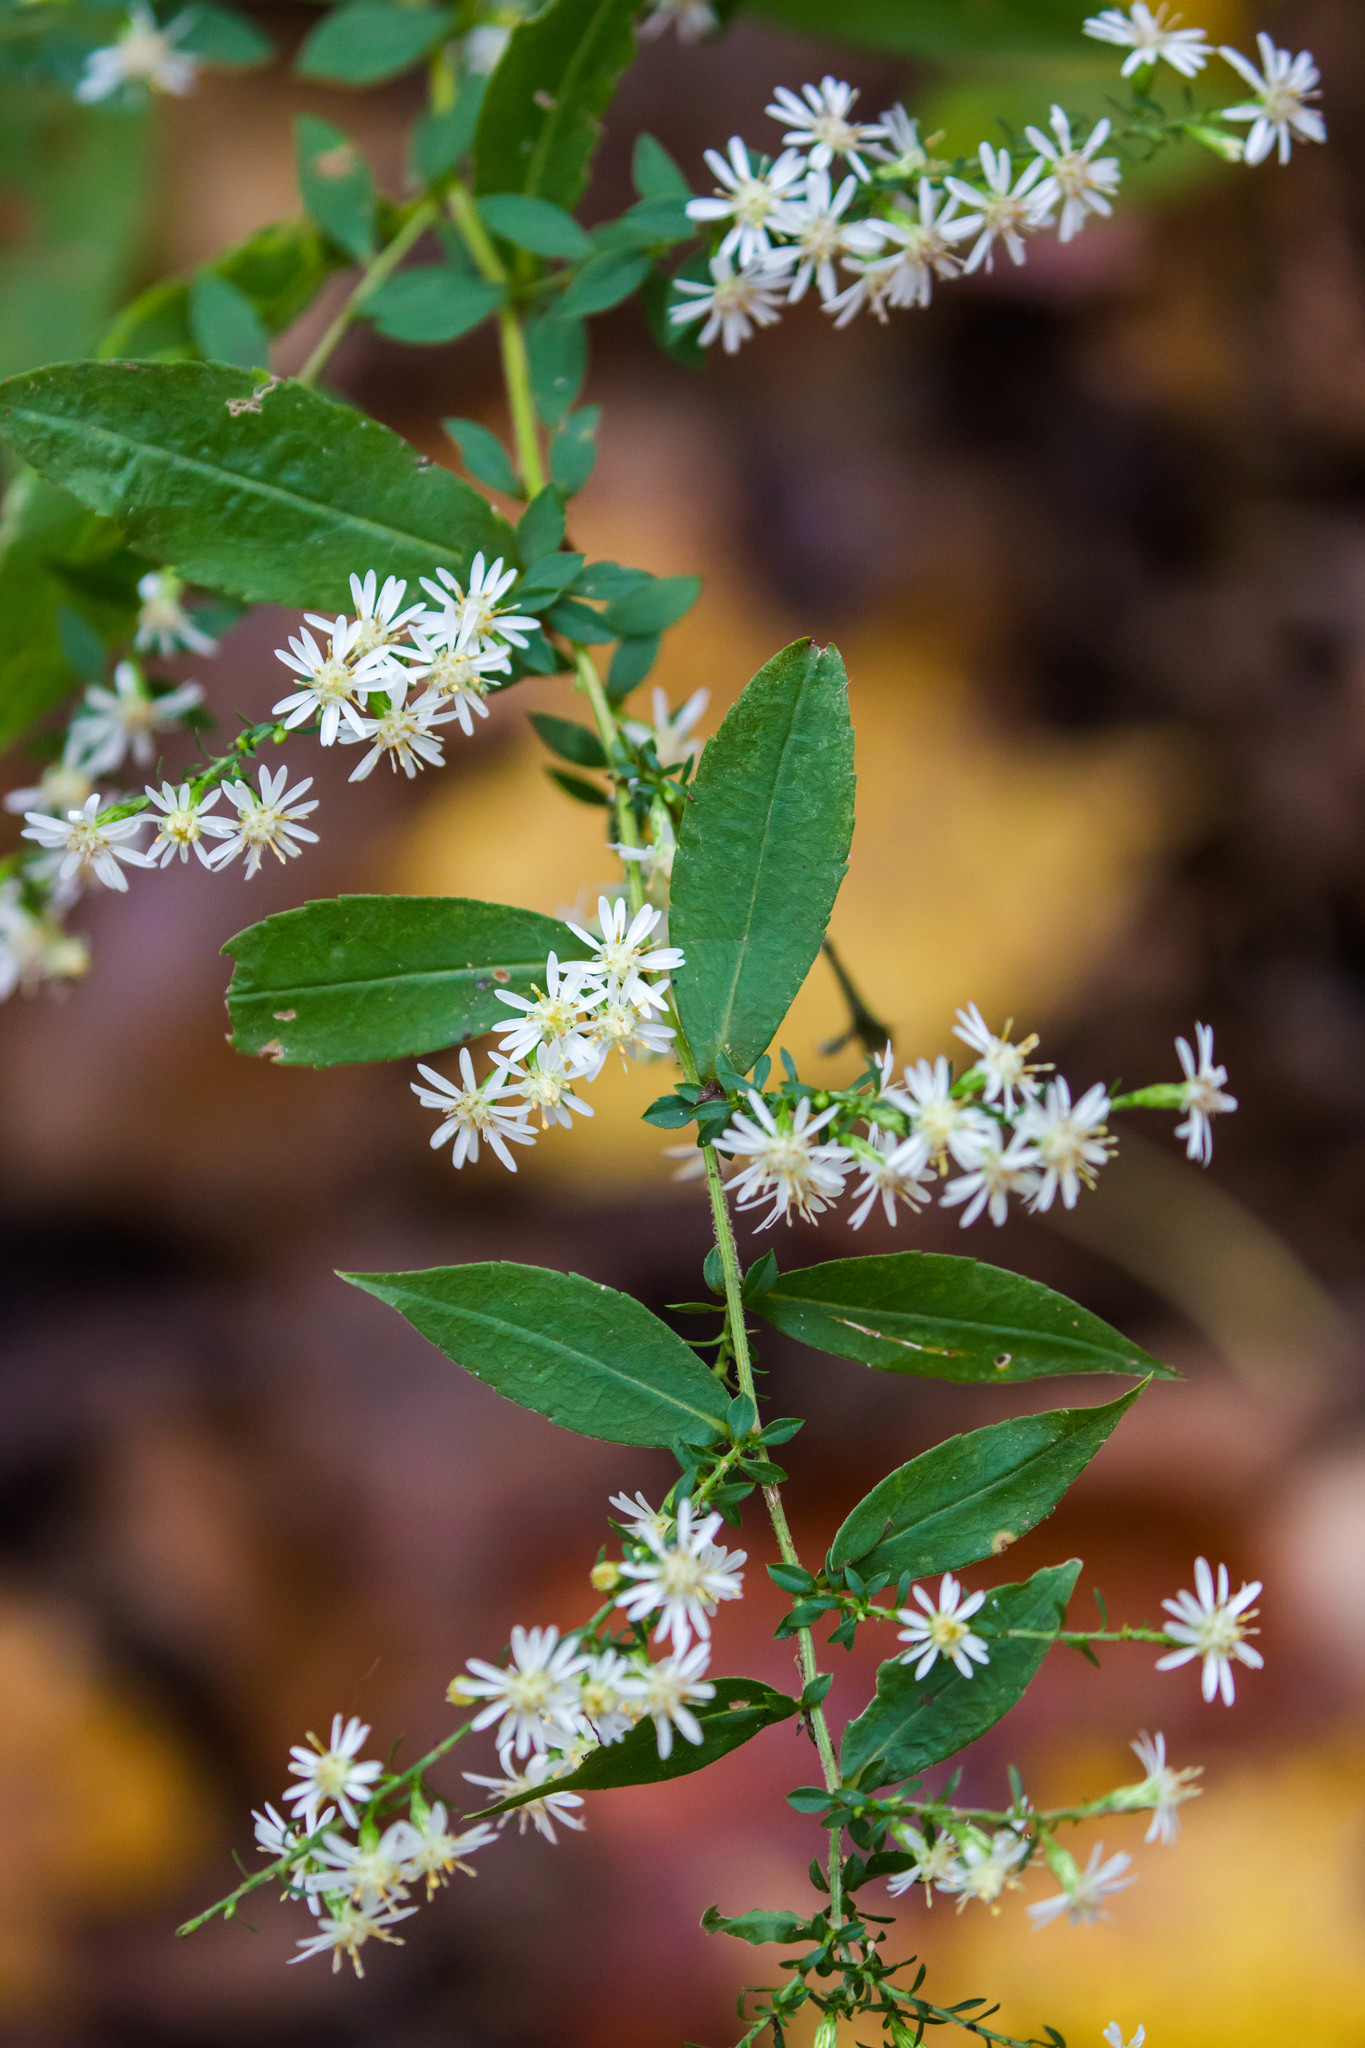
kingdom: Plantae
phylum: Tracheophyta
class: Magnoliopsida
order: Asterales
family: Asteraceae
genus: Symphyotrichum
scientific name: Symphyotrichum lateriflorum
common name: Calico aster
